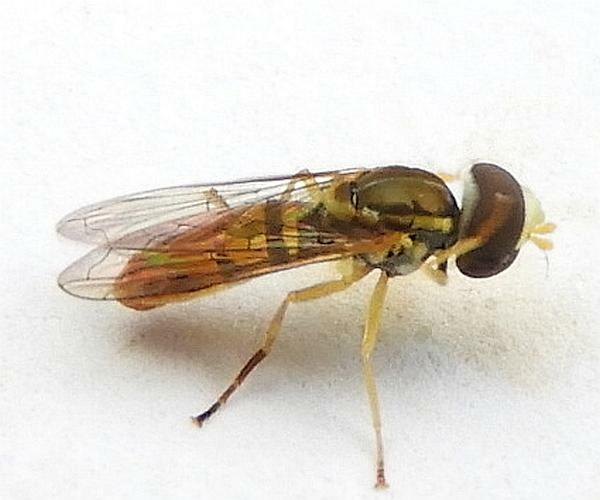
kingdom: Animalia
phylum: Arthropoda
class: Insecta
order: Diptera
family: Syrphidae
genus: Toxomerus
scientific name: Toxomerus marginatus
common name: Syrphid fly
